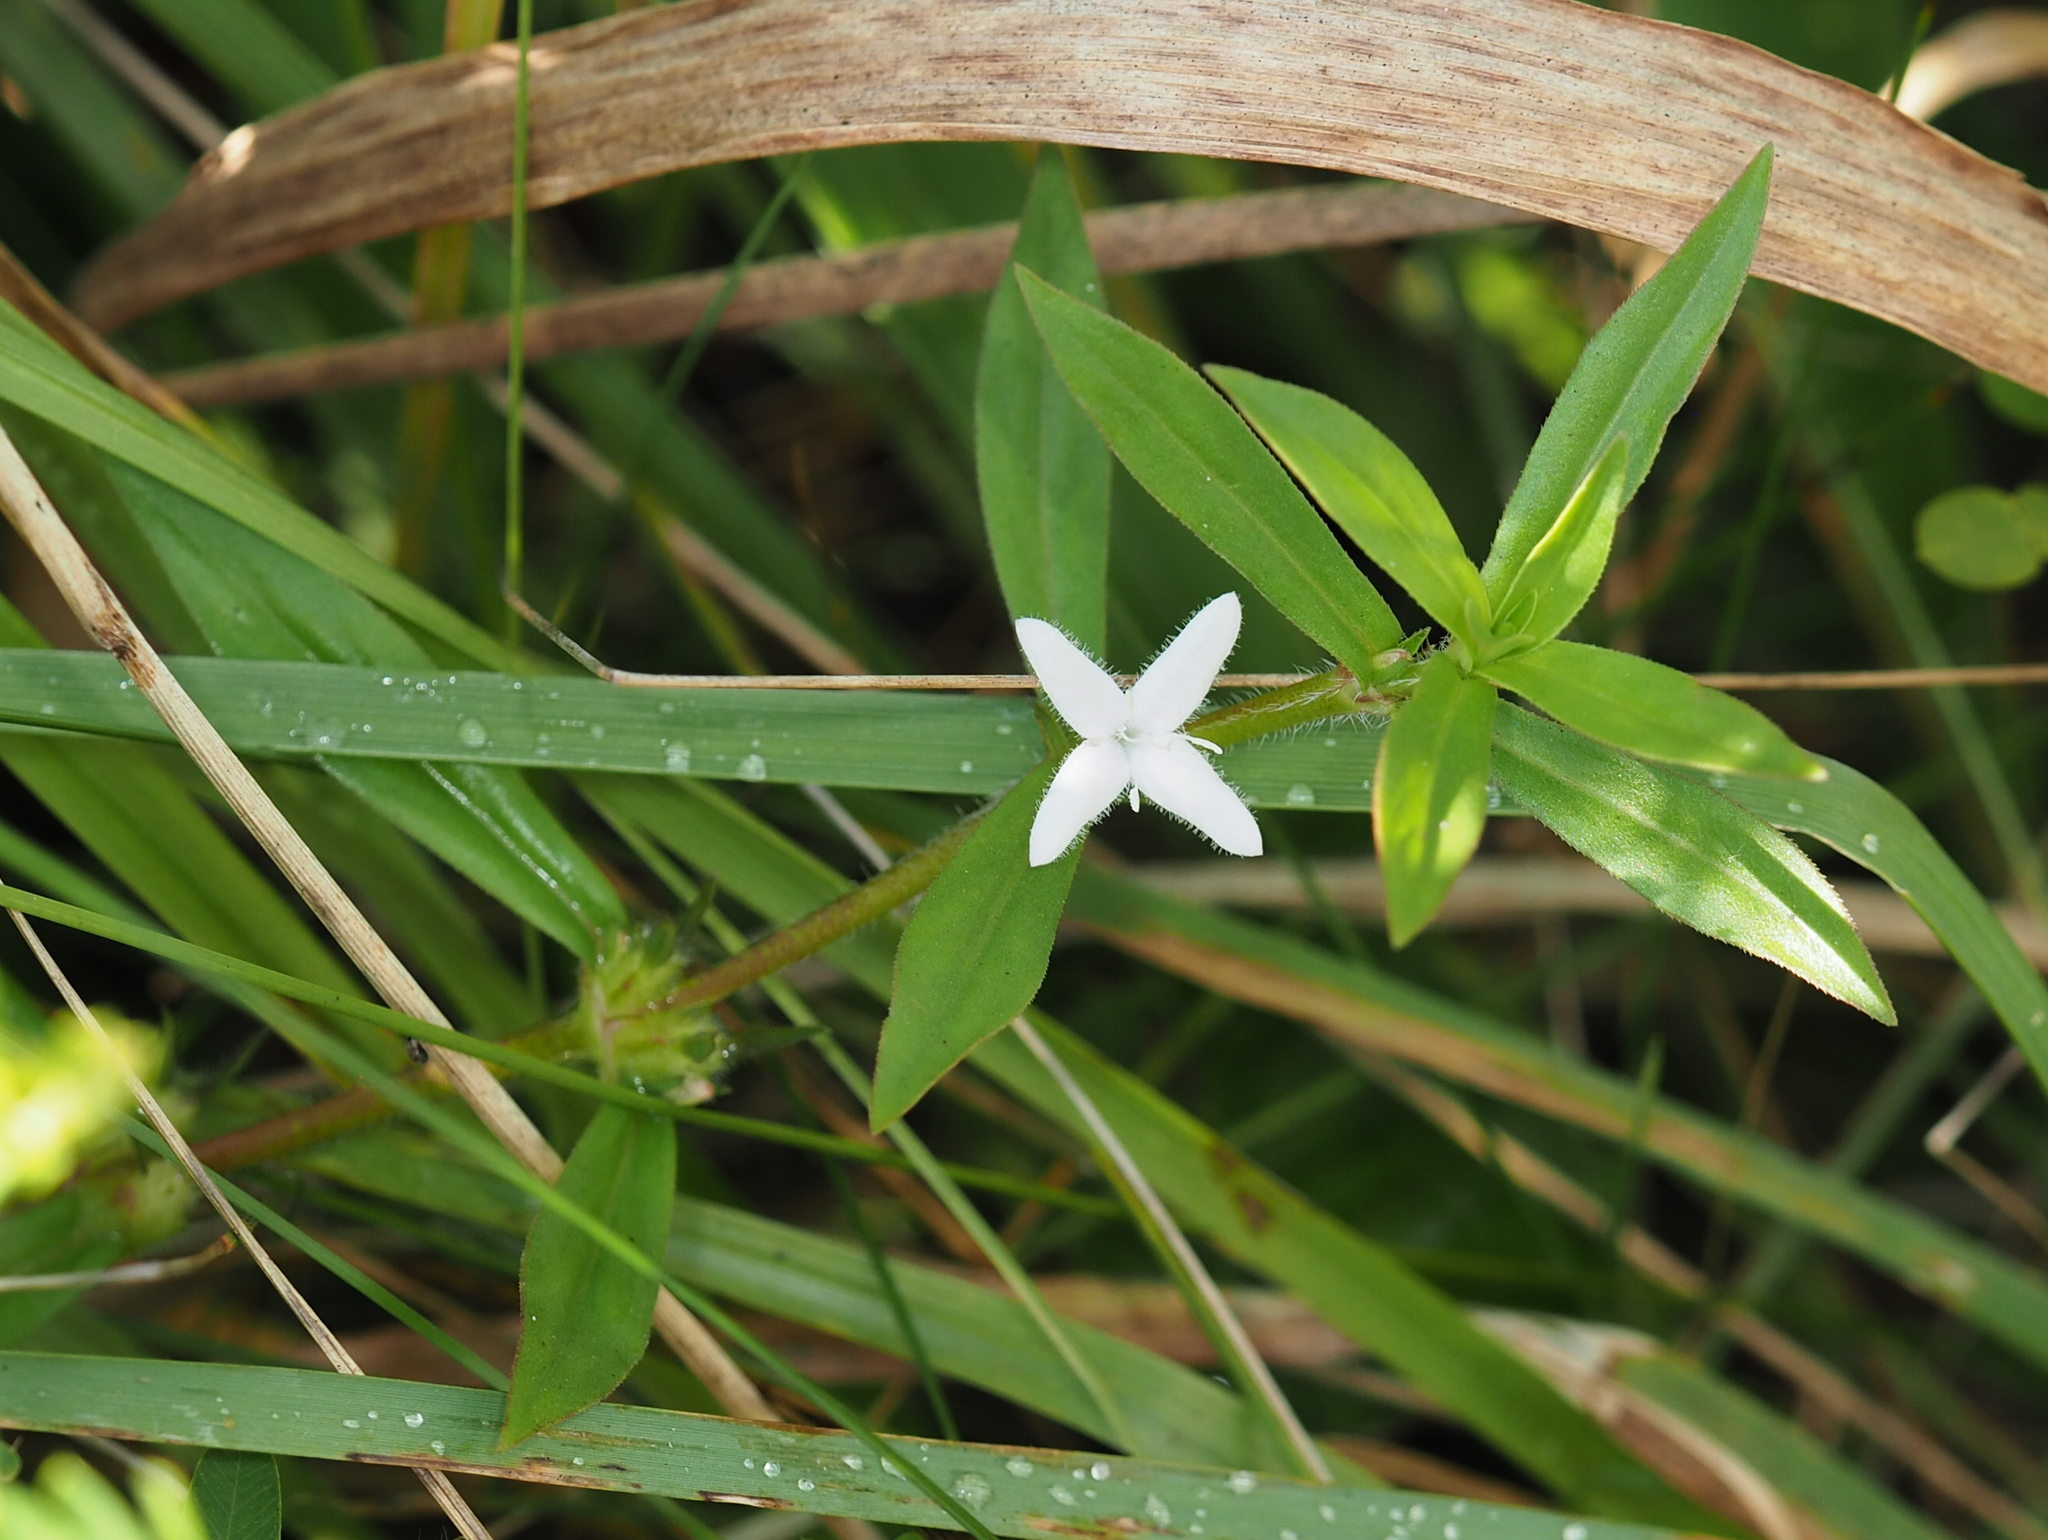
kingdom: Plantae
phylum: Tracheophyta
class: Magnoliopsida
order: Gentianales
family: Rubiaceae
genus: Diodia
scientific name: Diodia virginiana
